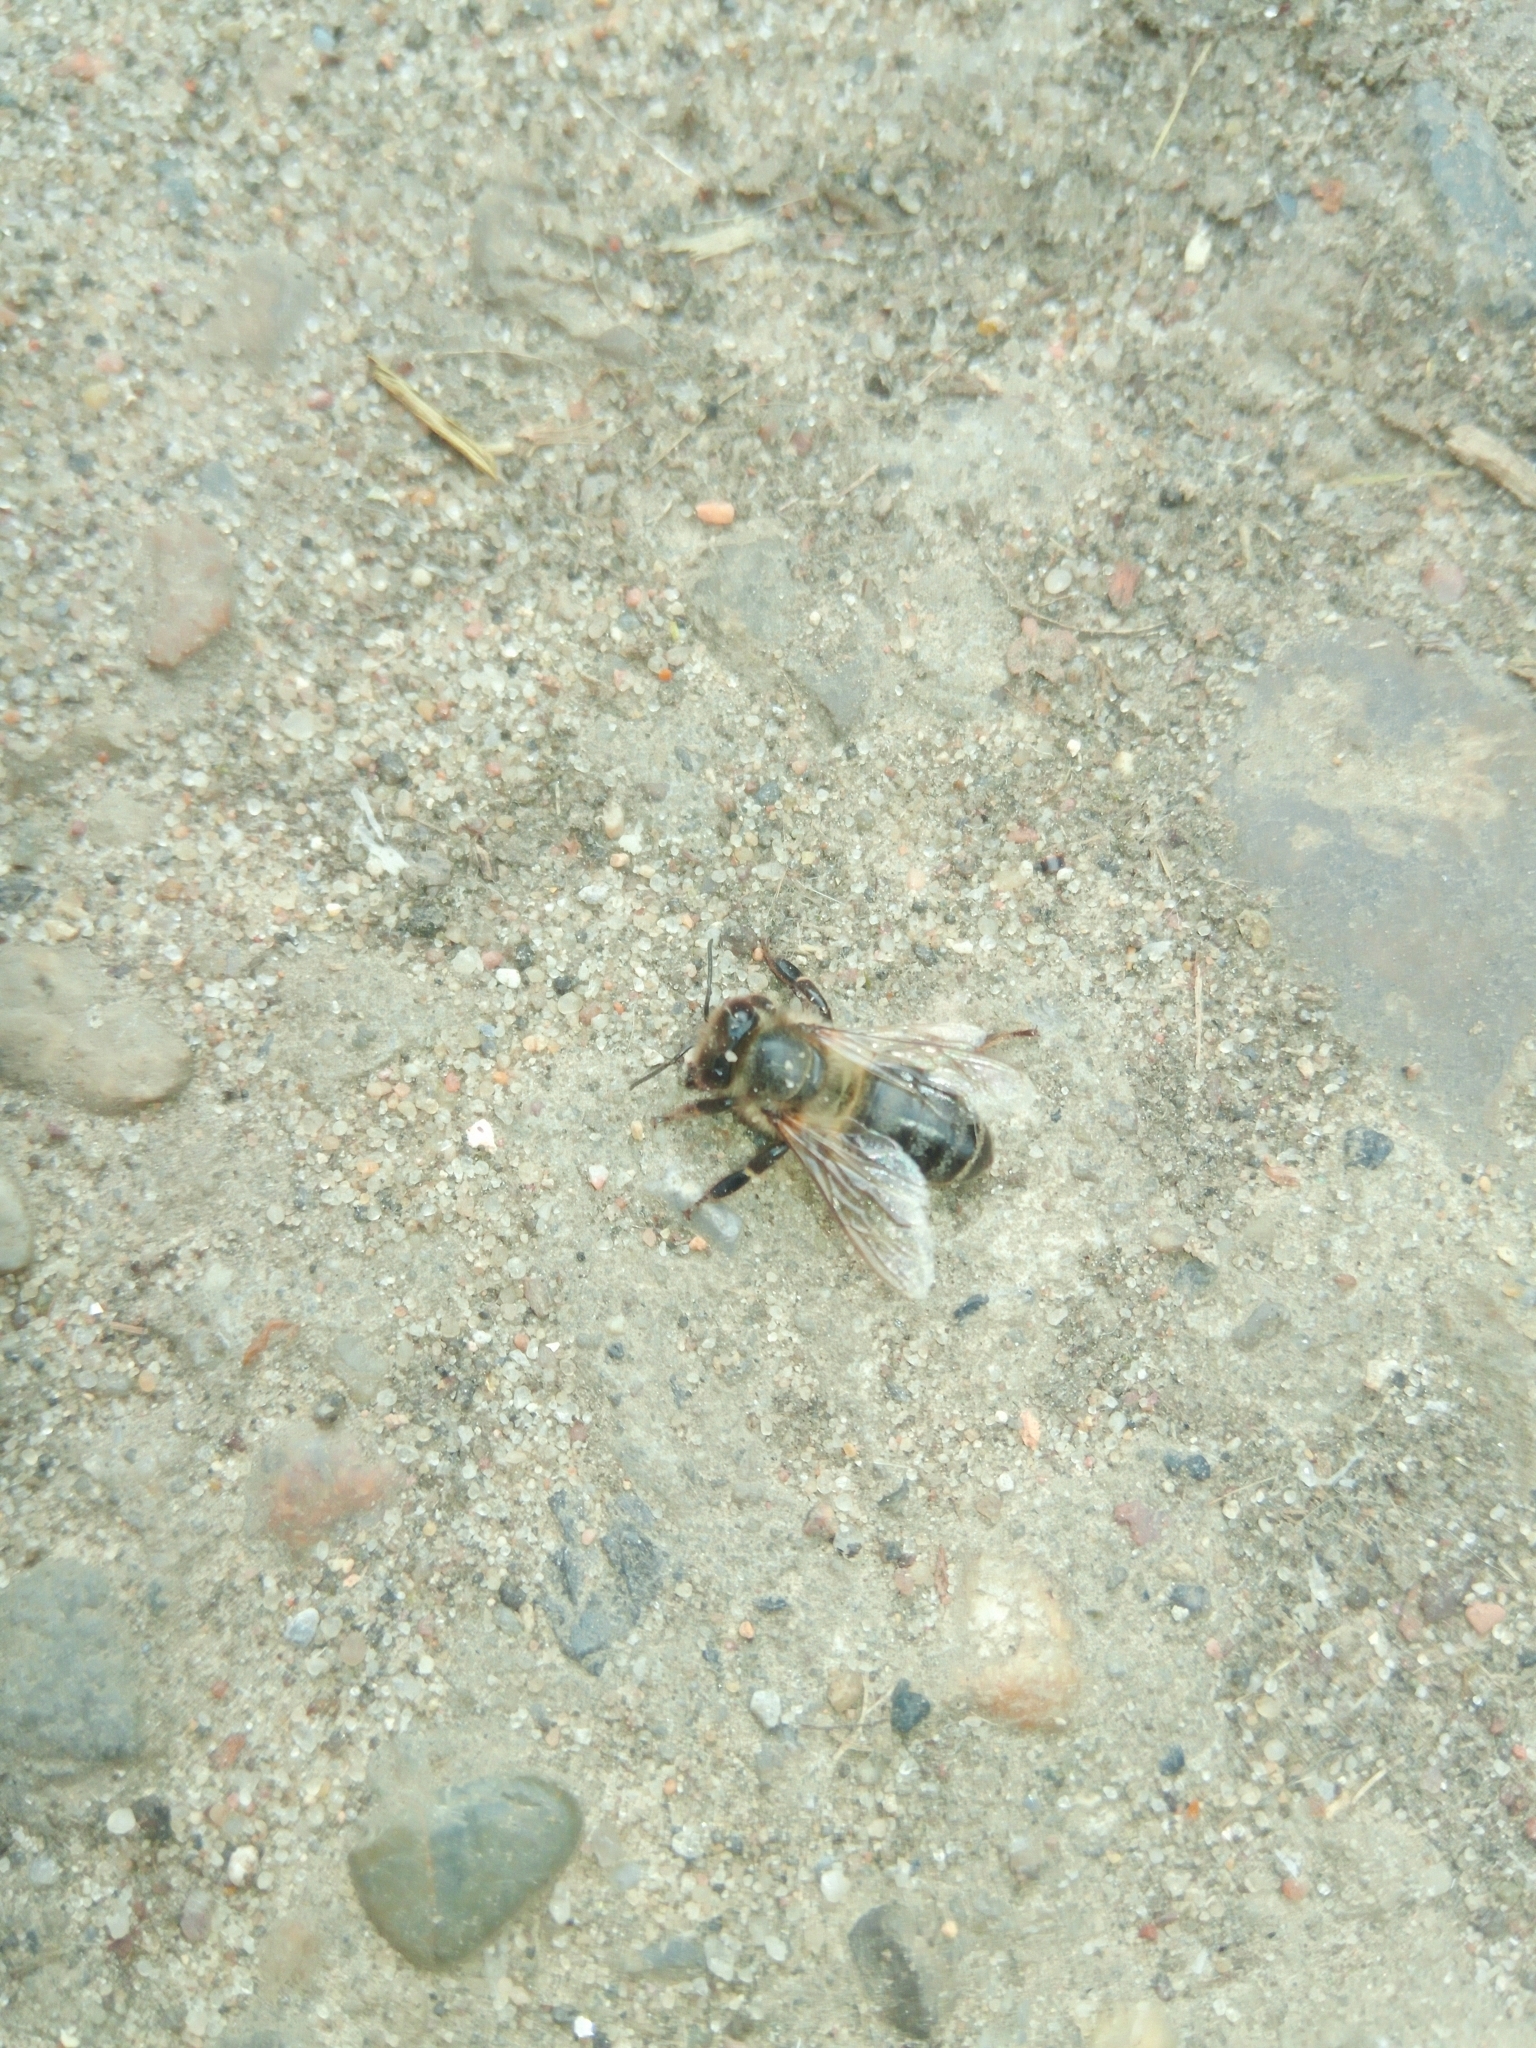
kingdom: Animalia
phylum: Arthropoda
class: Insecta
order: Hymenoptera
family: Apidae
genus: Apis
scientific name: Apis mellifera
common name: Honey bee
